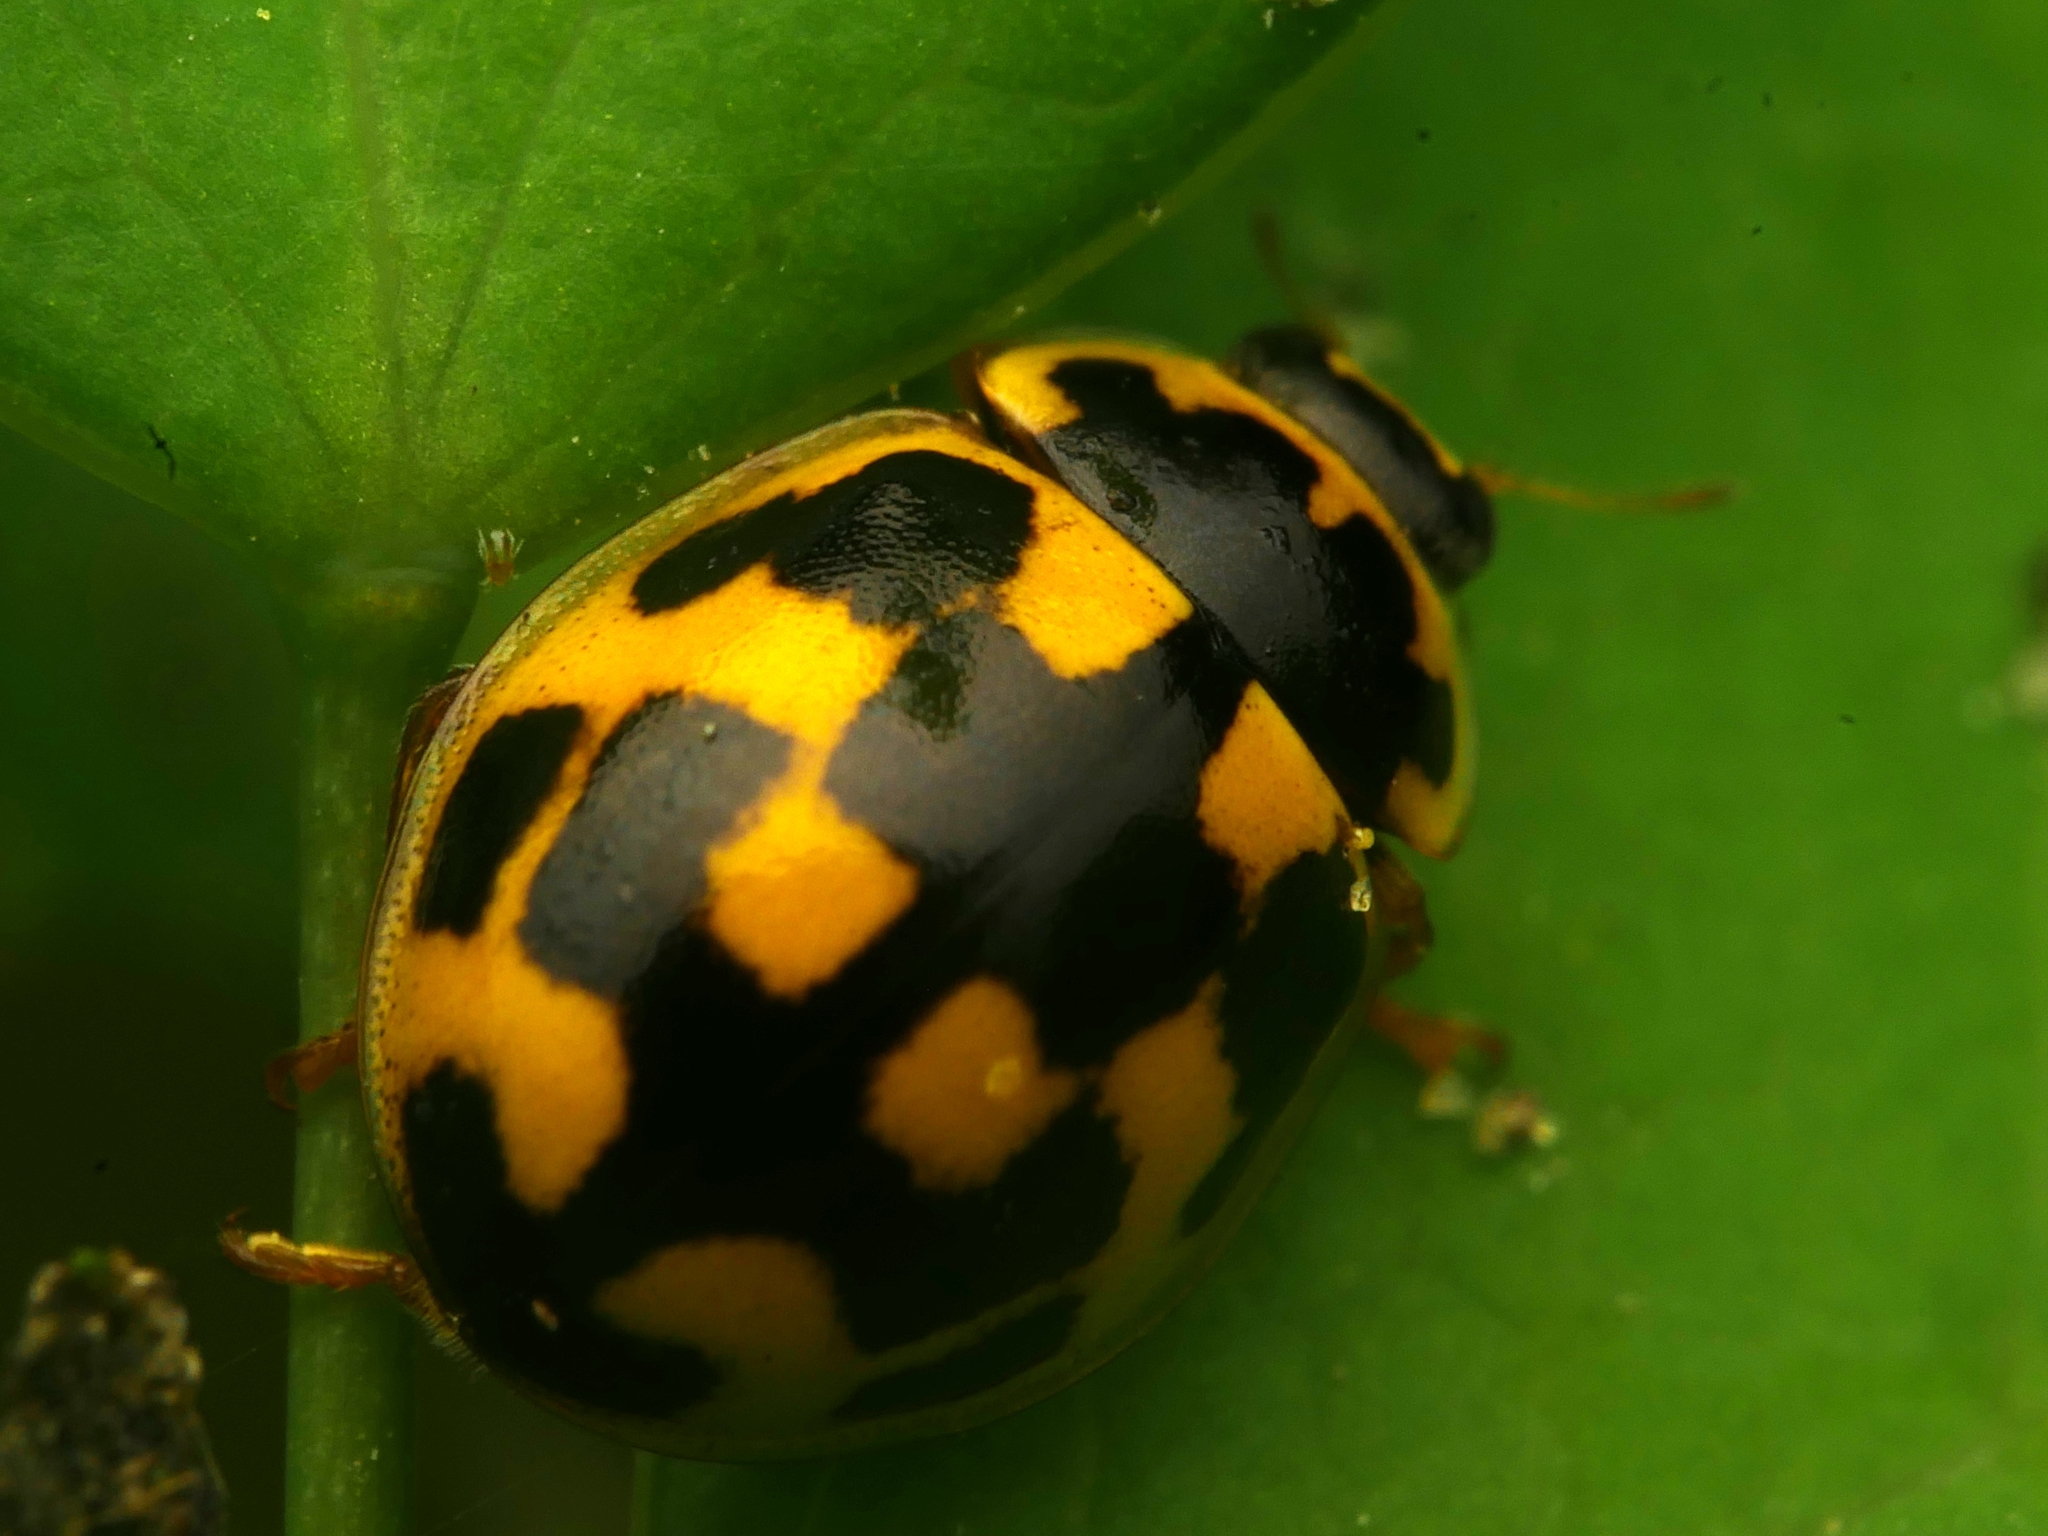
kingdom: Animalia
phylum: Arthropoda
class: Insecta
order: Coleoptera
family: Coccinellidae
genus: Propylaea
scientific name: Propylaea quatuordecimpunctata
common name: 14-spotted ladybird beetle
